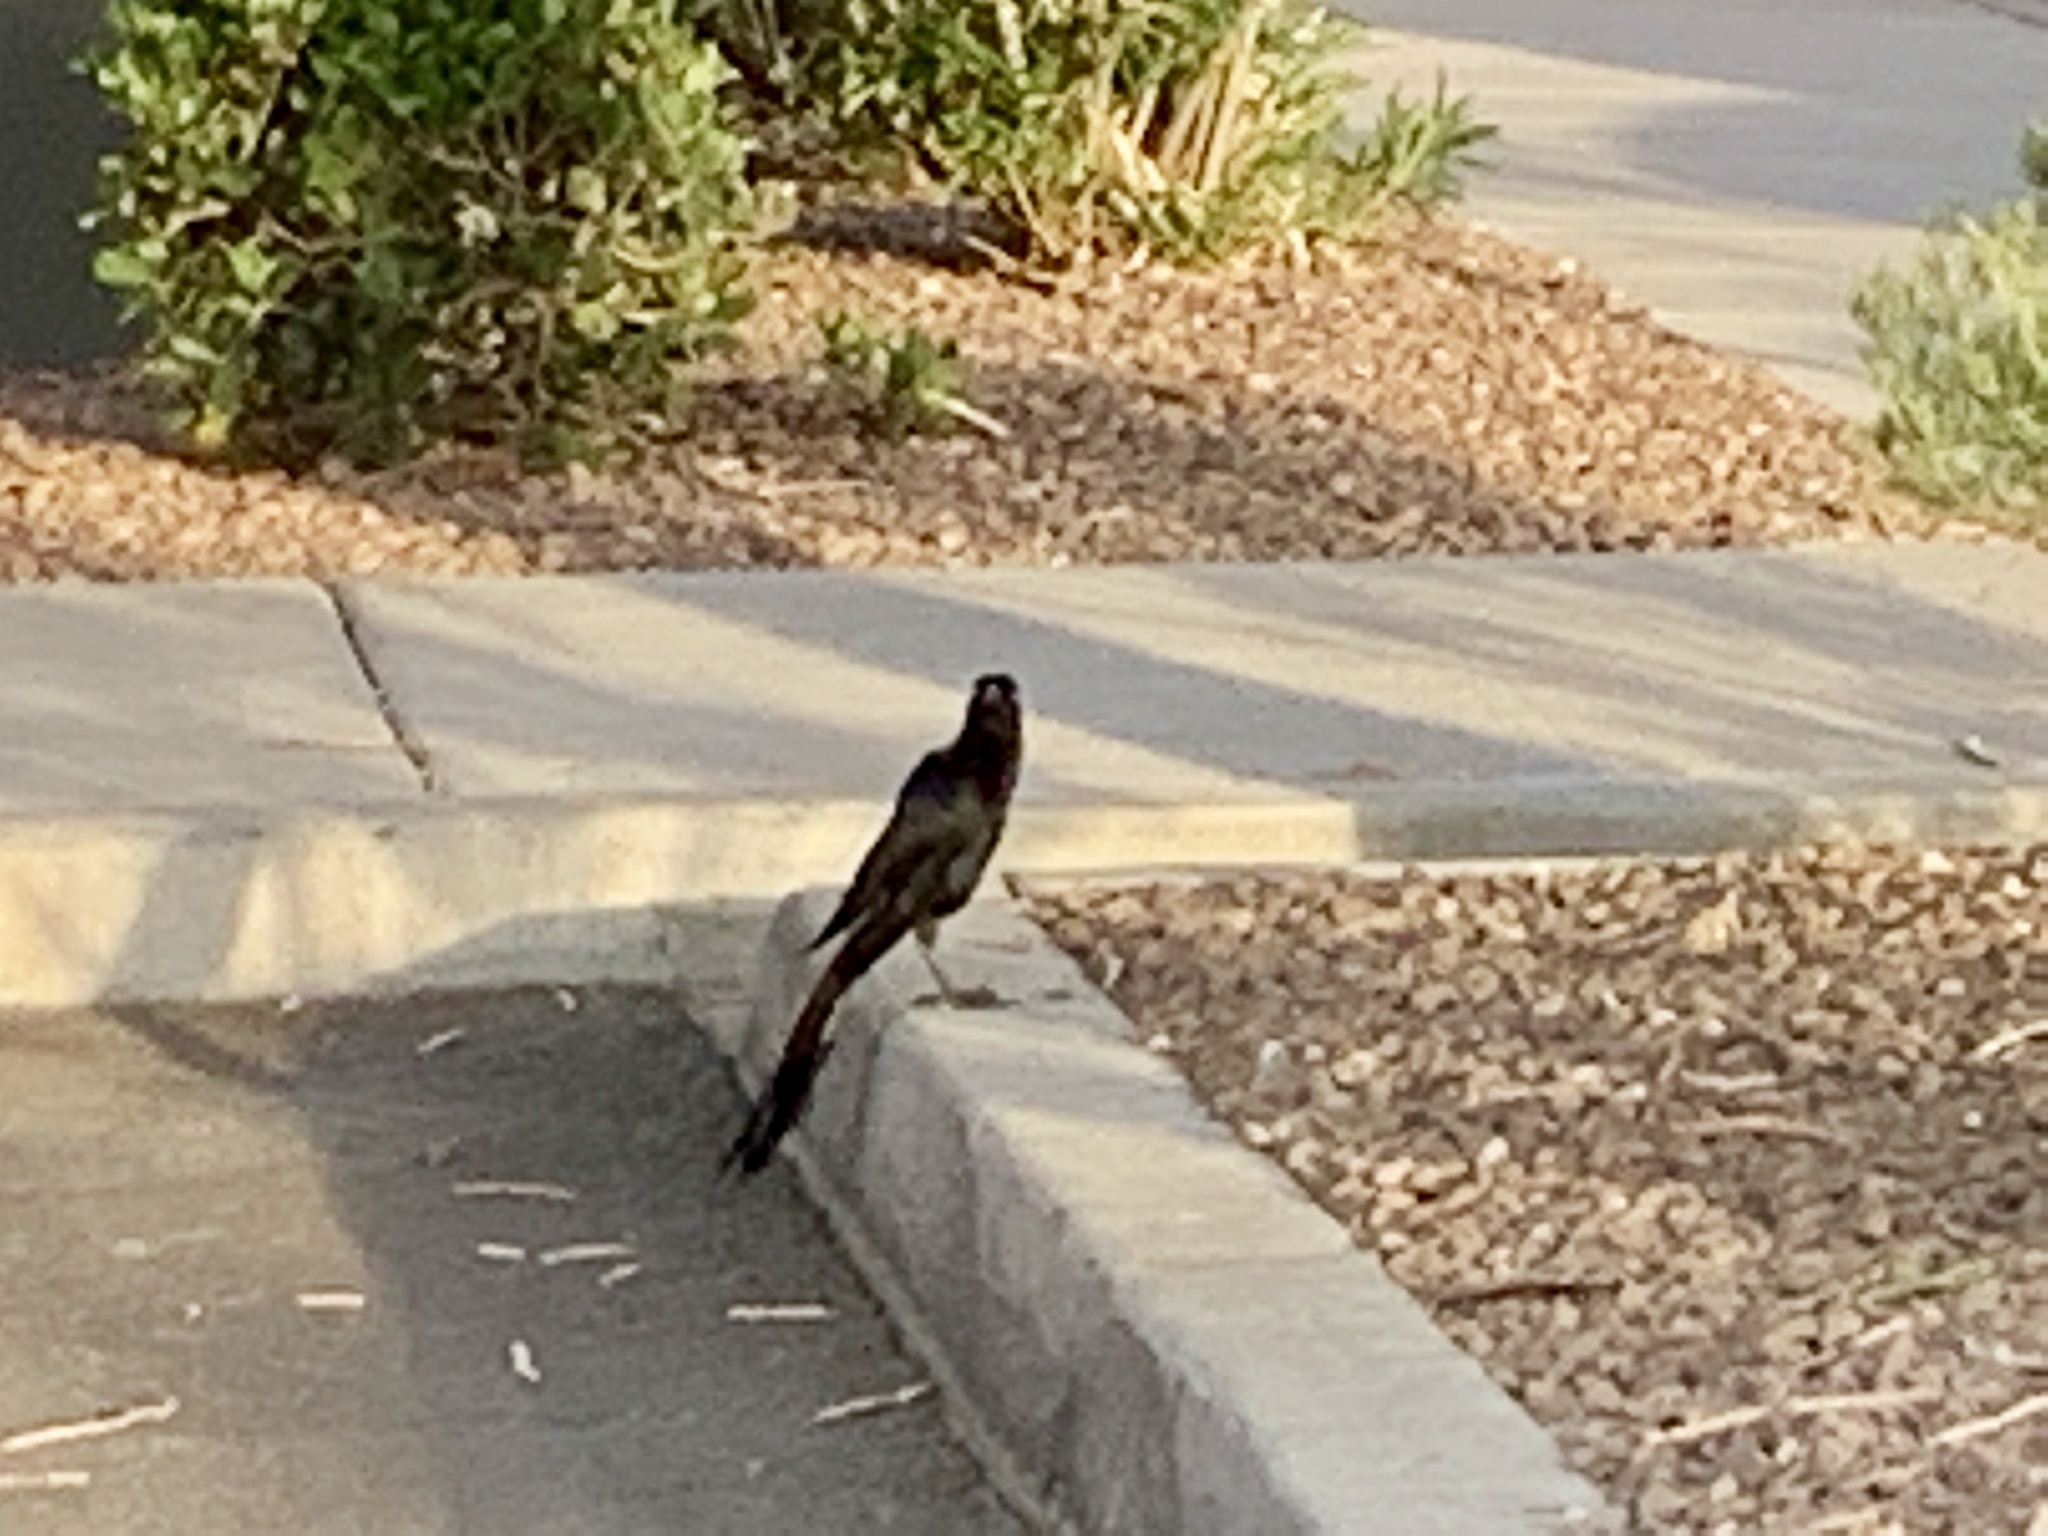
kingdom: Animalia
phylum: Chordata
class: Aves
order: Passeriformes
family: Icteridae
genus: Quiscalus
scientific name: Quiscalus mexicanus
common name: Great-tailed grackle
